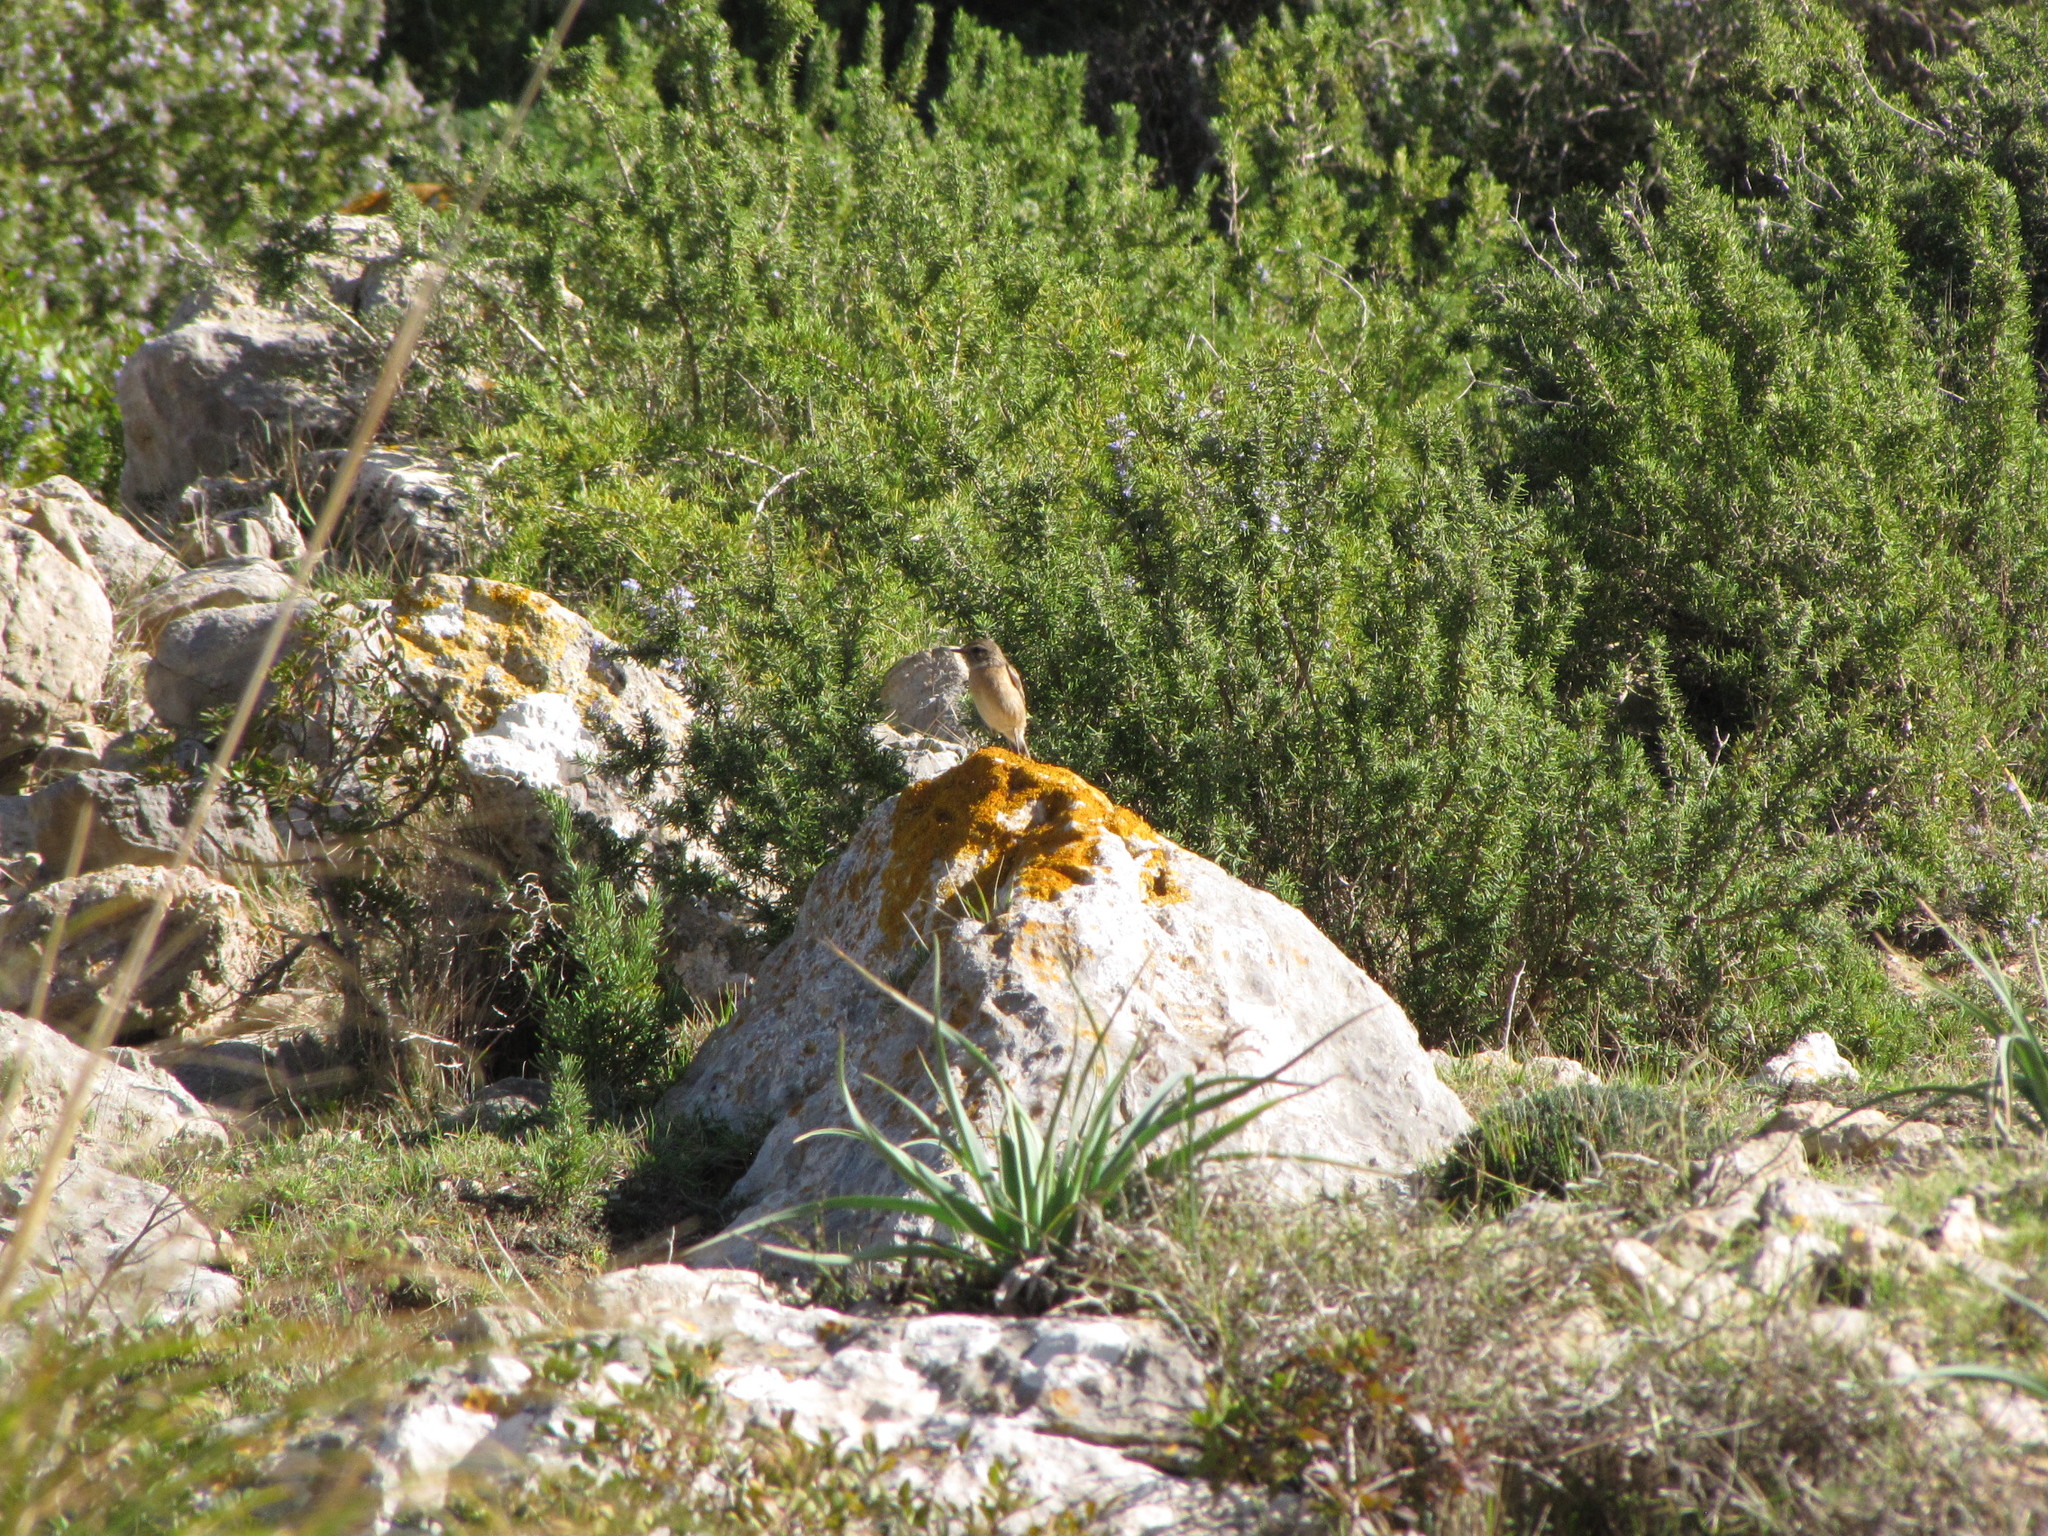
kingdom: Animalia
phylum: Chordata
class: Aves
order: Passeriformes
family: Muscicapidae
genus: Saxicola
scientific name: Saxicola rubicola
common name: European stonechat
